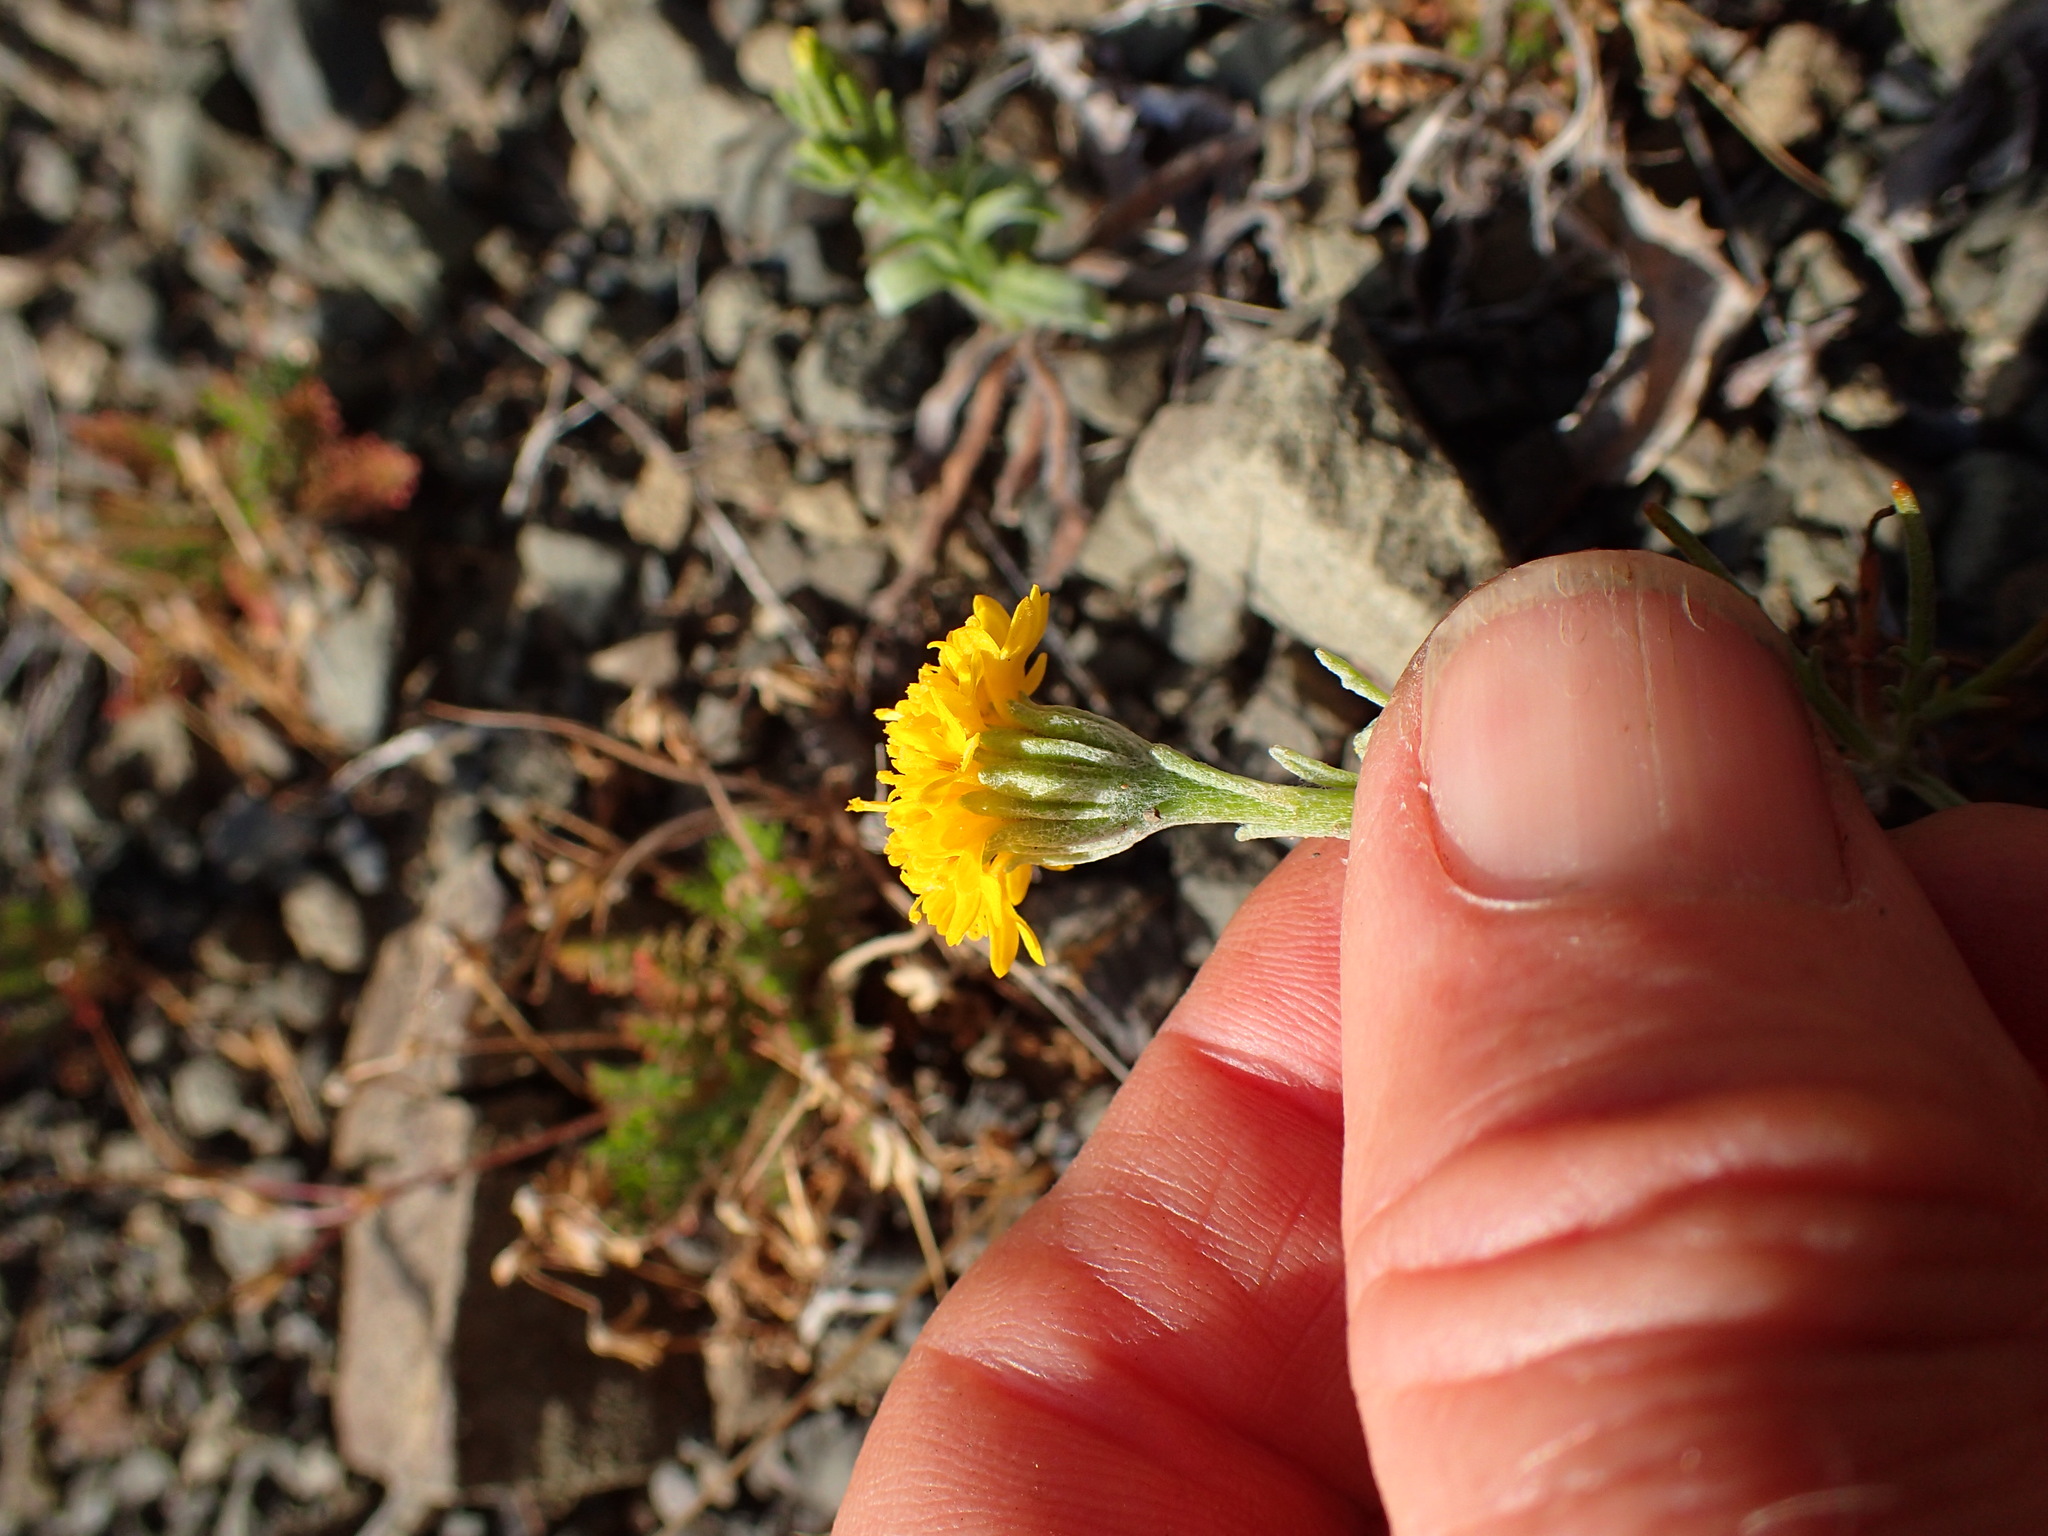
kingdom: Plantae
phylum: Tracheophyta
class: Magnoliopsida
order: Asterales
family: Asteraceae
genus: Chaenactis
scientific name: Chaenactis glabriuscula
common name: Yellow pincushion
